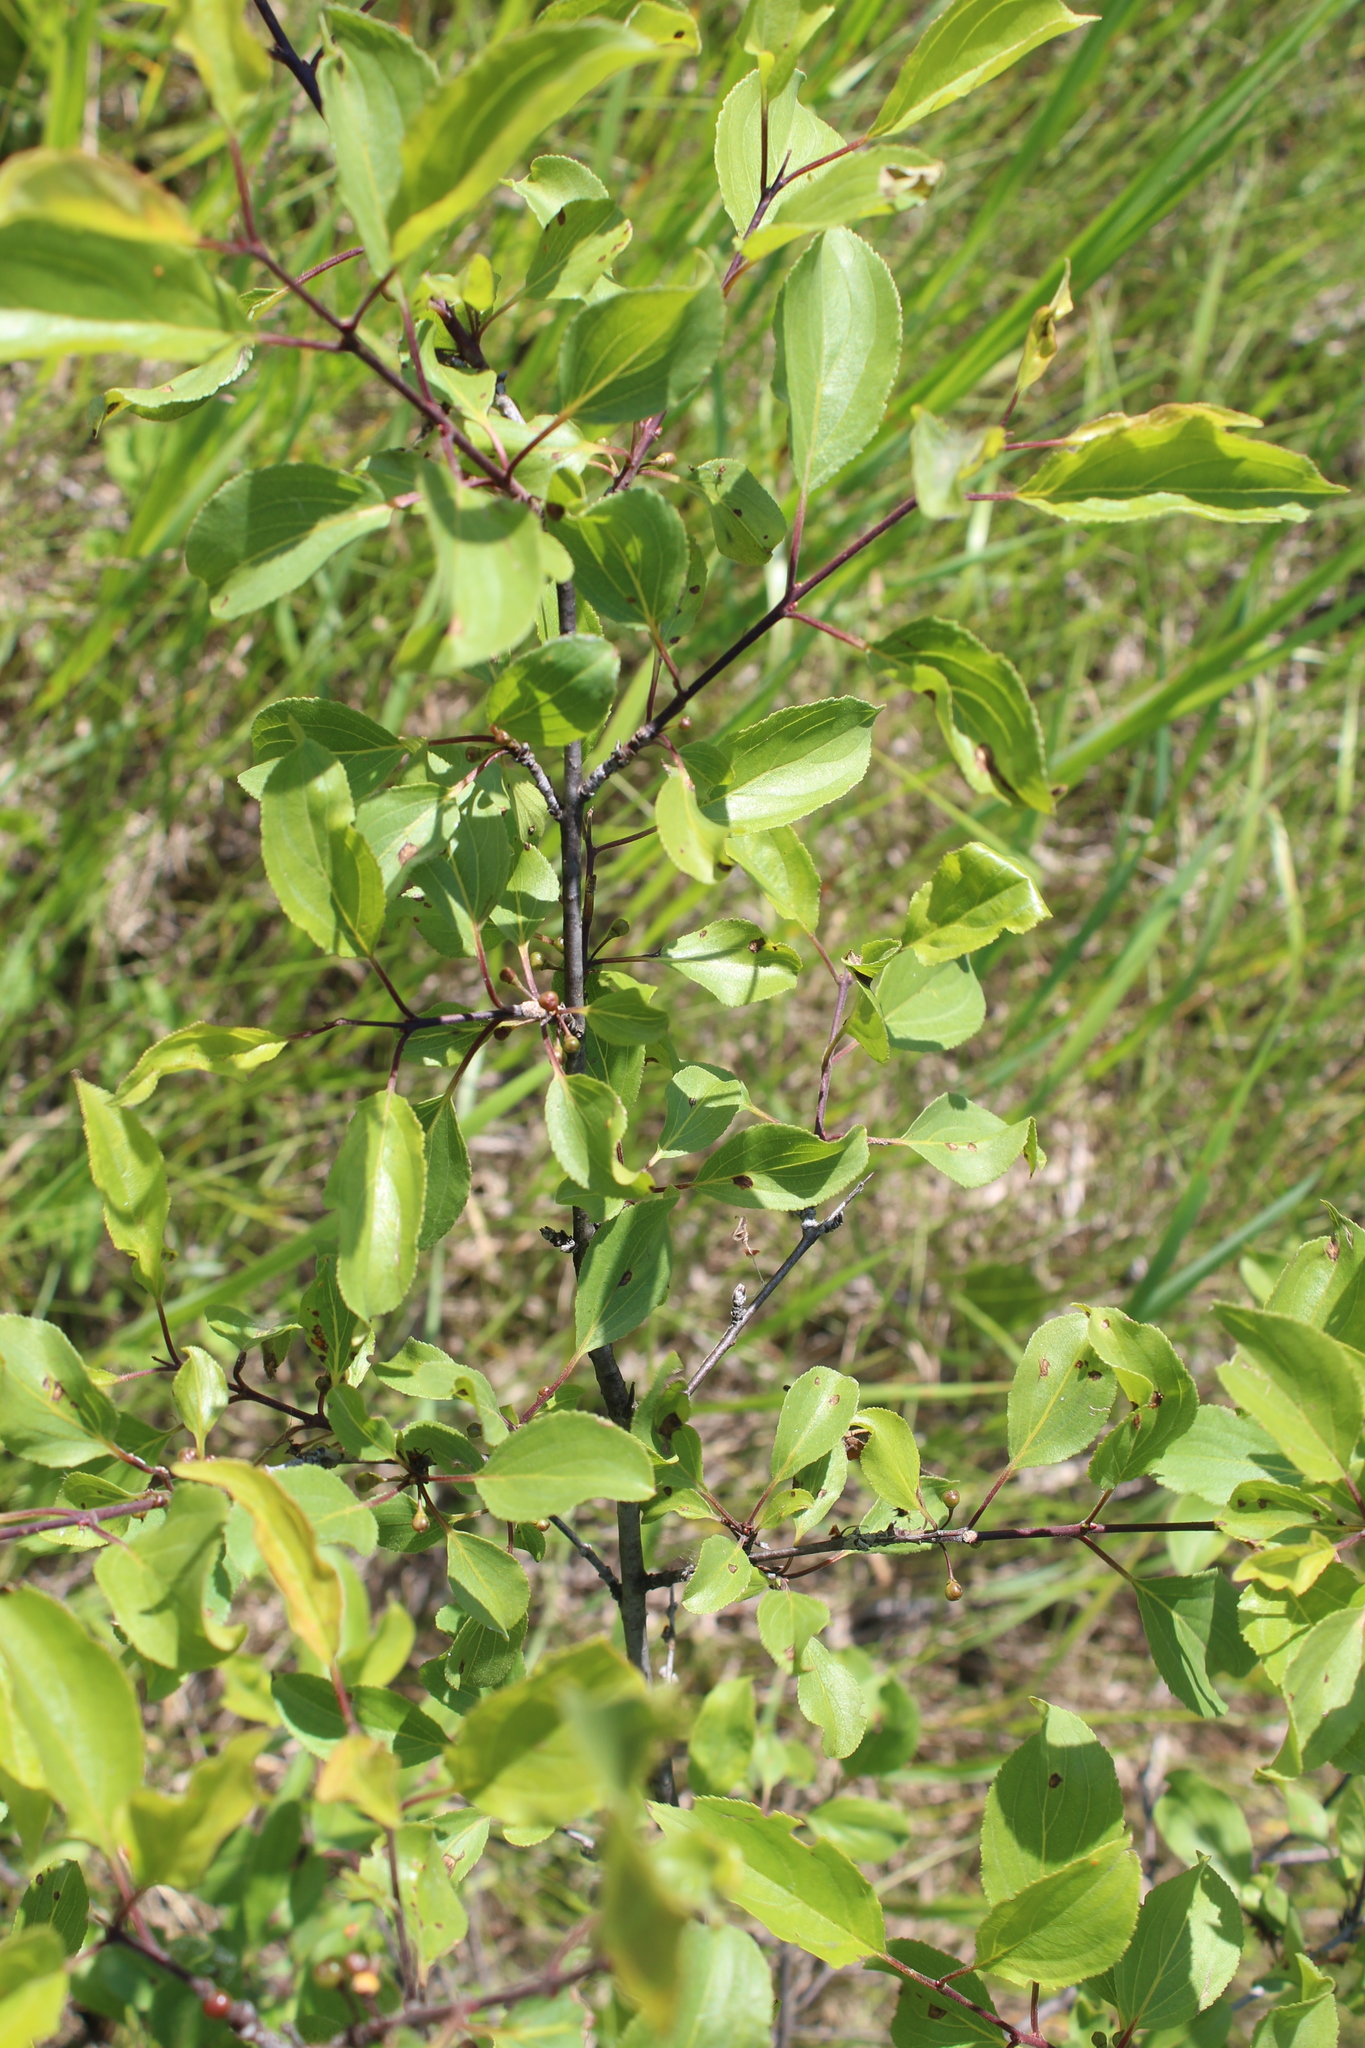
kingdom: Plantae
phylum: Tracheophyta
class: Magnoliopsida
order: Rosales
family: Rhamnaceae
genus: Rhamnus
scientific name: Rhamnus cathartica
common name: Common buckthorn
